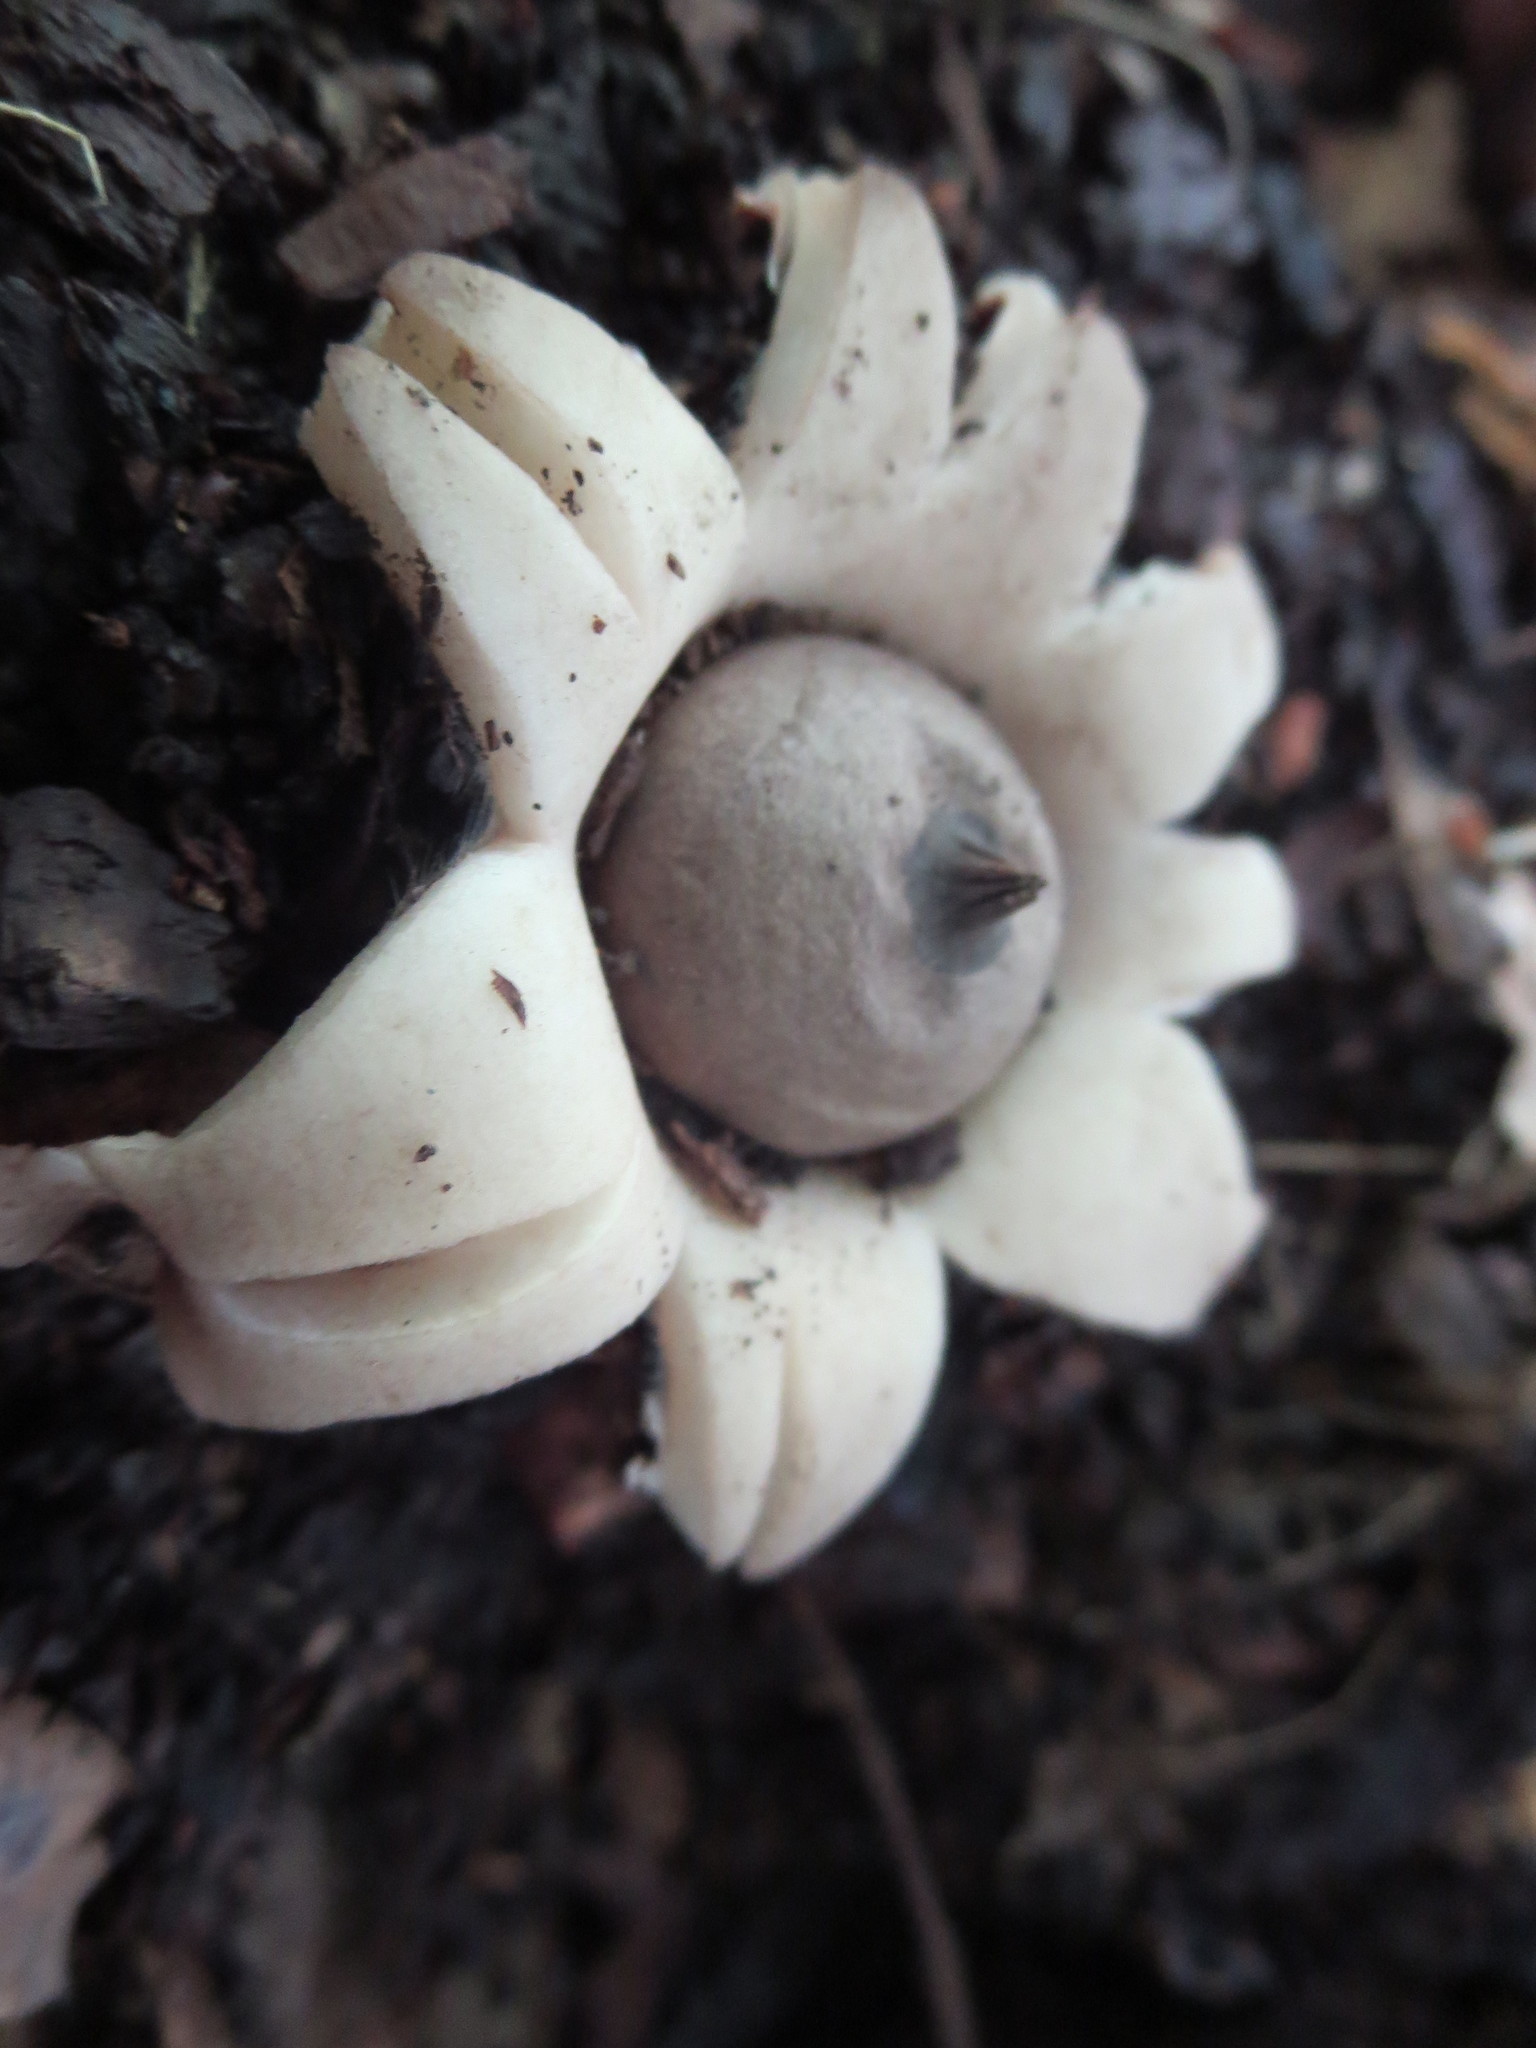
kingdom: Fungi
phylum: Basidiomycota
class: Agaricomycetes
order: Geastrales
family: Geastraceae
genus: Geastrum
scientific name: Geastrum saccatum
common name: Rounded earthstar
